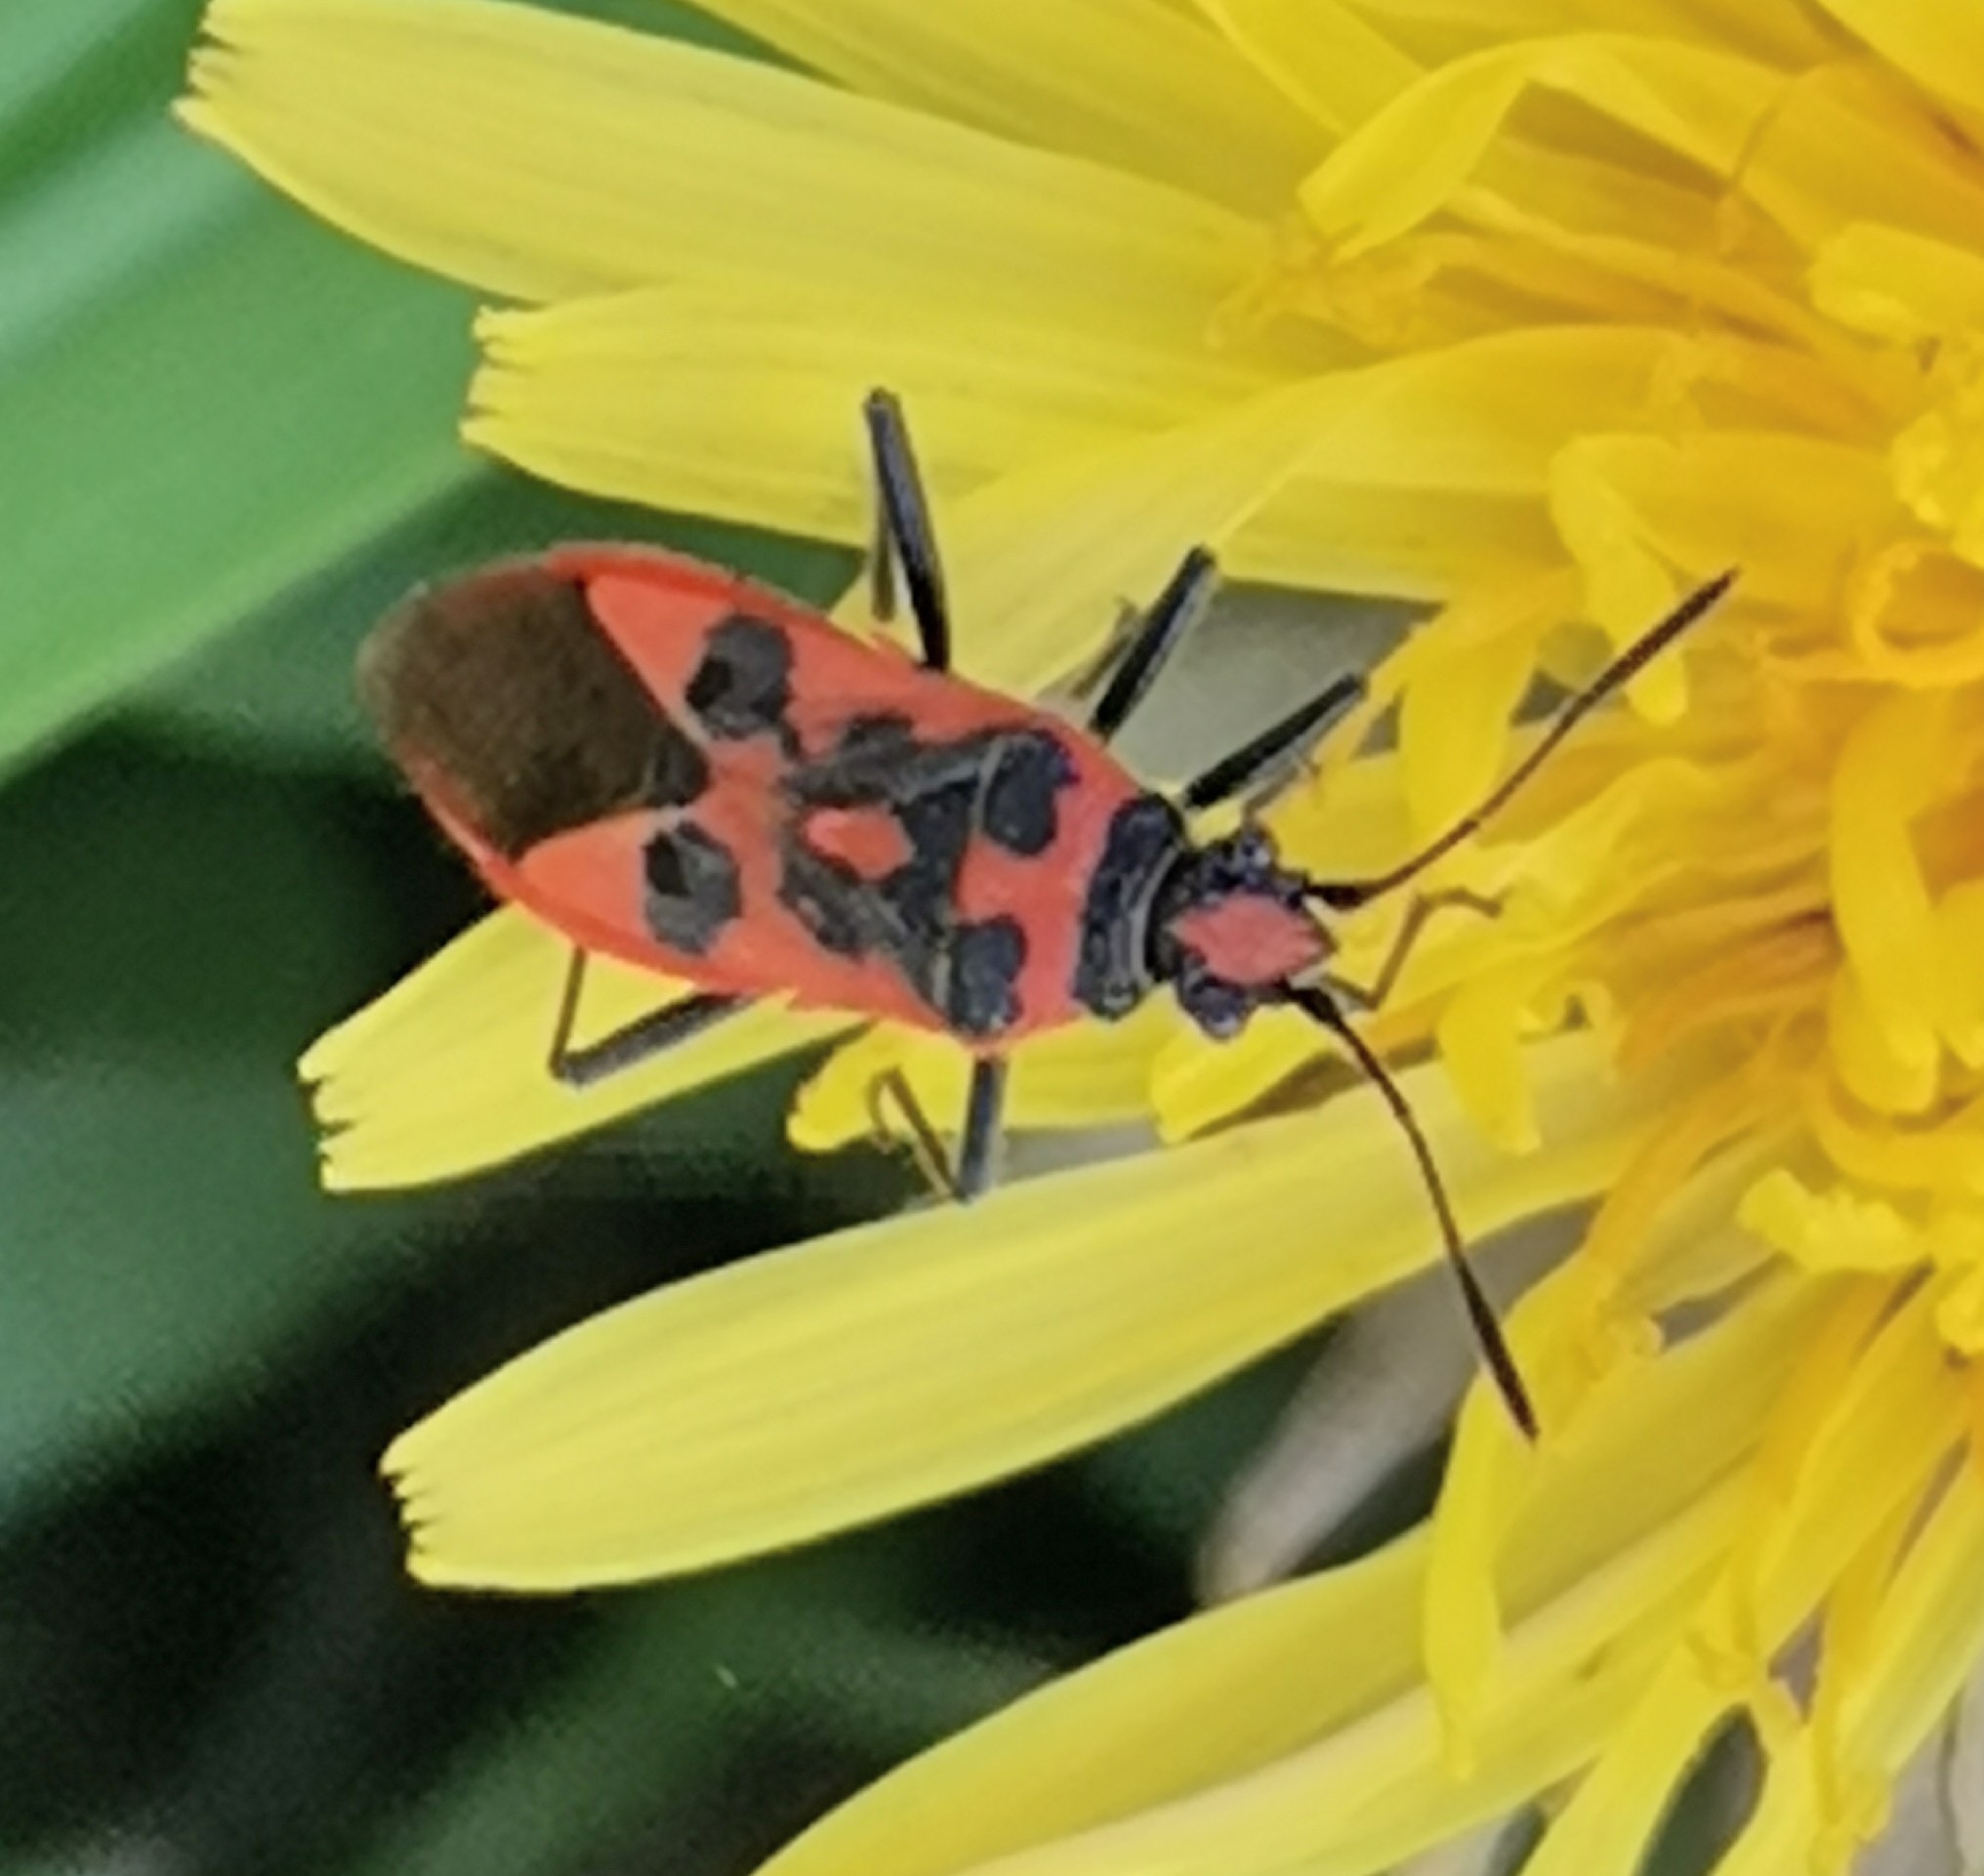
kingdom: Animalia
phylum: Arthropoda
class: Insecta
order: Hemiptera
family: Rhopalidae
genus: Corizus
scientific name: Corizus hyoscyami
